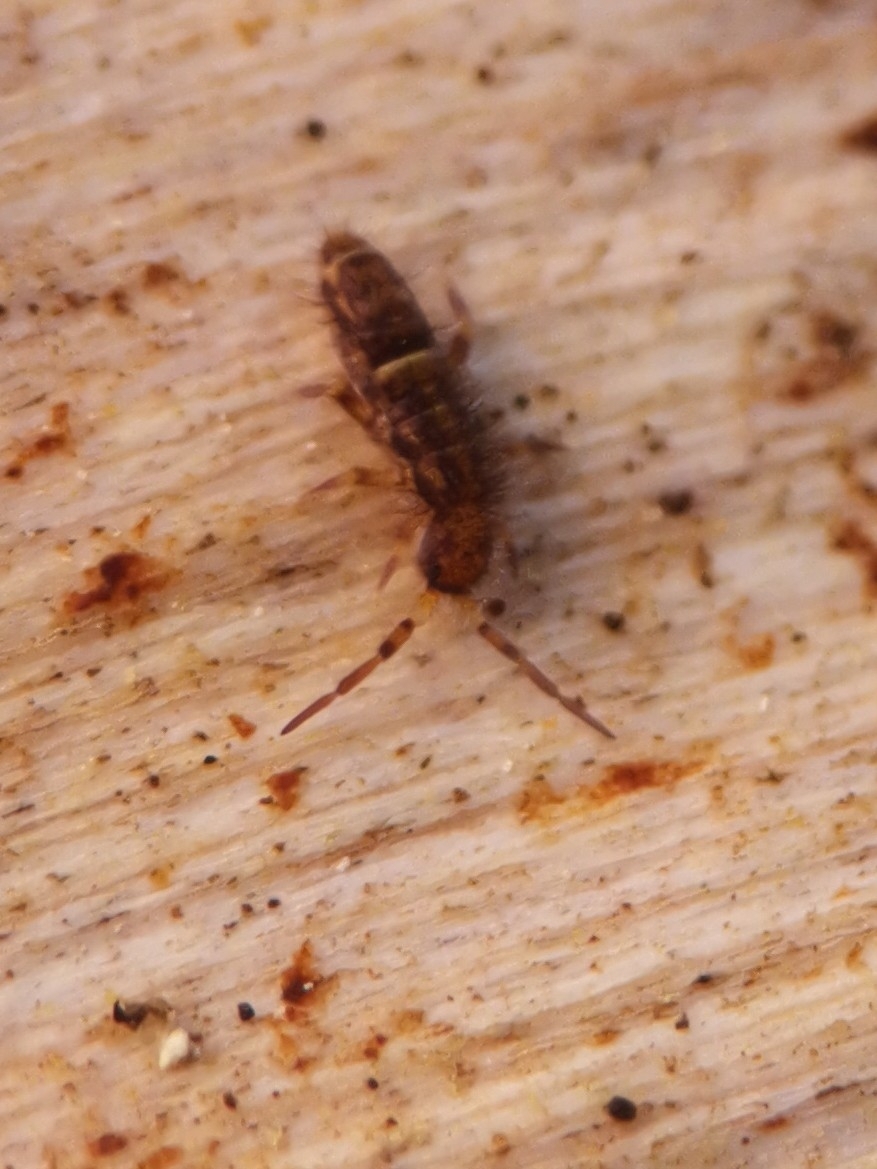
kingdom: Animalia
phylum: Arthropoda
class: Collembola
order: Entomobryomorpha
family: Orchesellidae
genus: Orchesella
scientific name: Orchesella cincta
